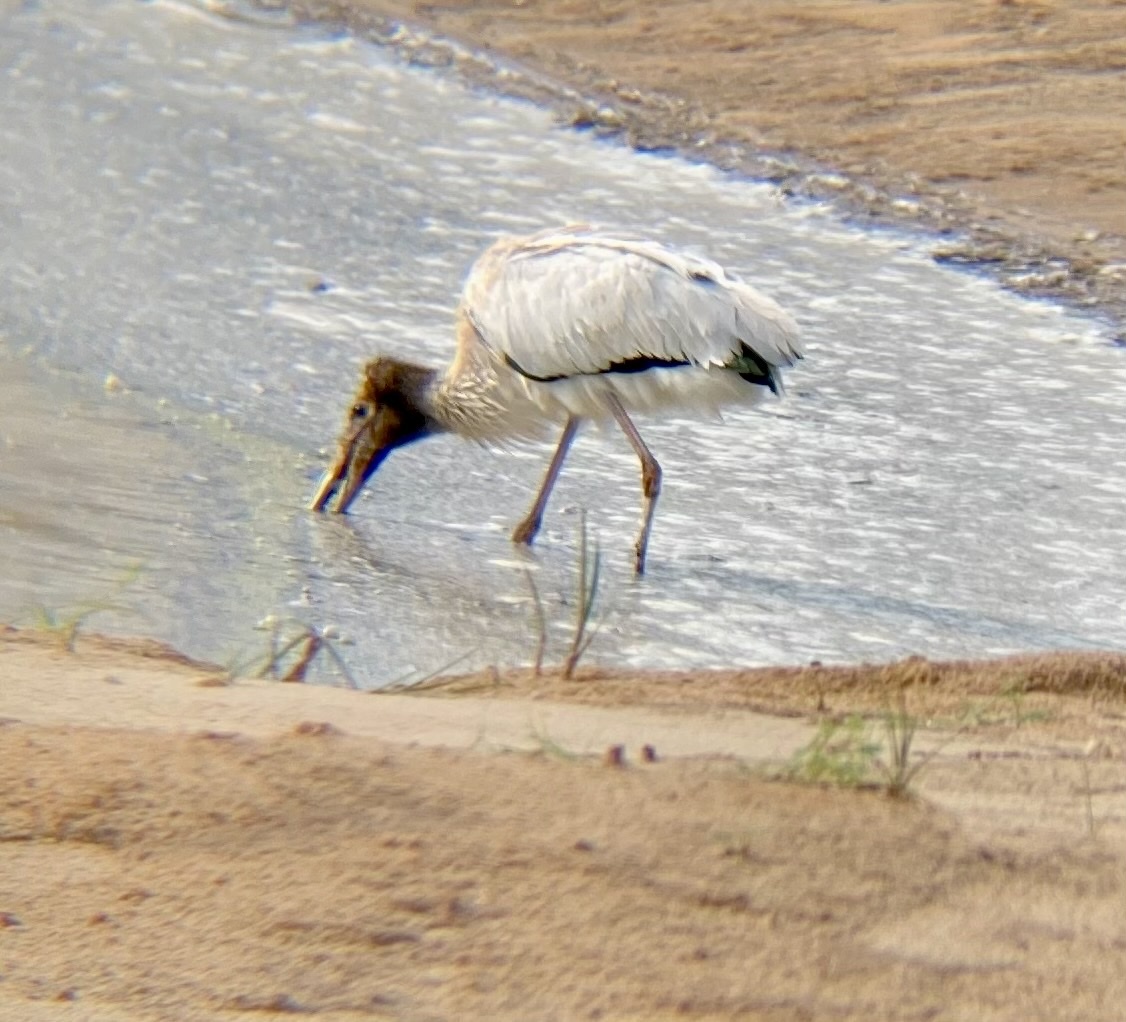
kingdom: Animalia
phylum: Chordata
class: Aves
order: Ciconiiformes
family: Ciconiidae
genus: Mycteria
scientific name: Mycteria americana
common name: Wood stork
